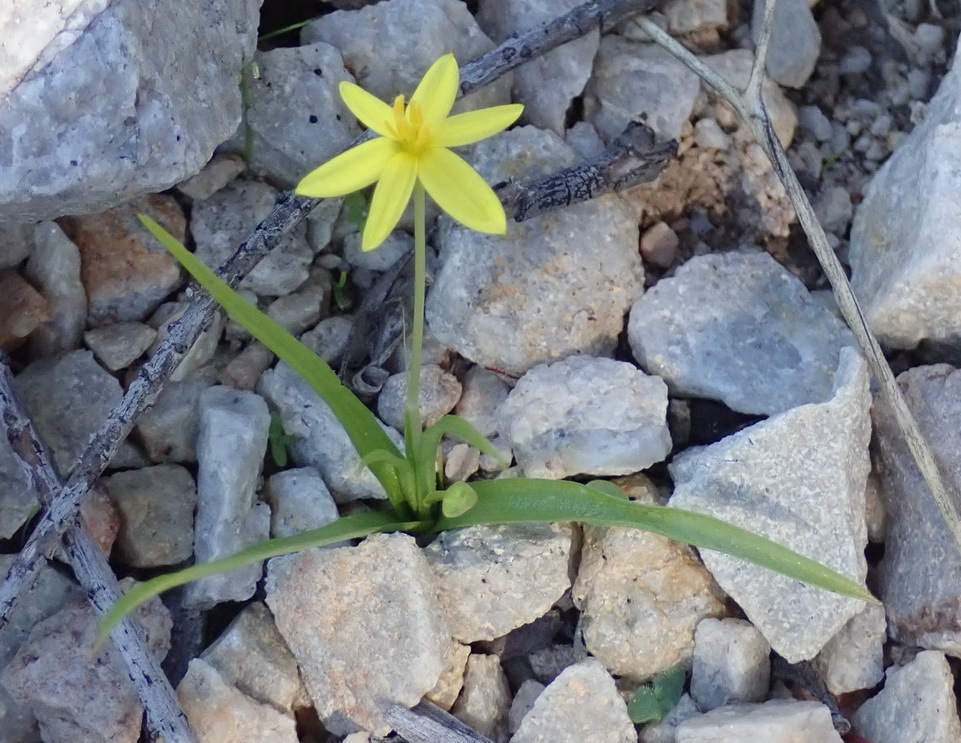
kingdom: Plantae
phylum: Tracheophyta
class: Liliopsida
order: Asparagales
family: Hypoxidaceae
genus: Pauridia
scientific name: Pauridia trifurcillata
